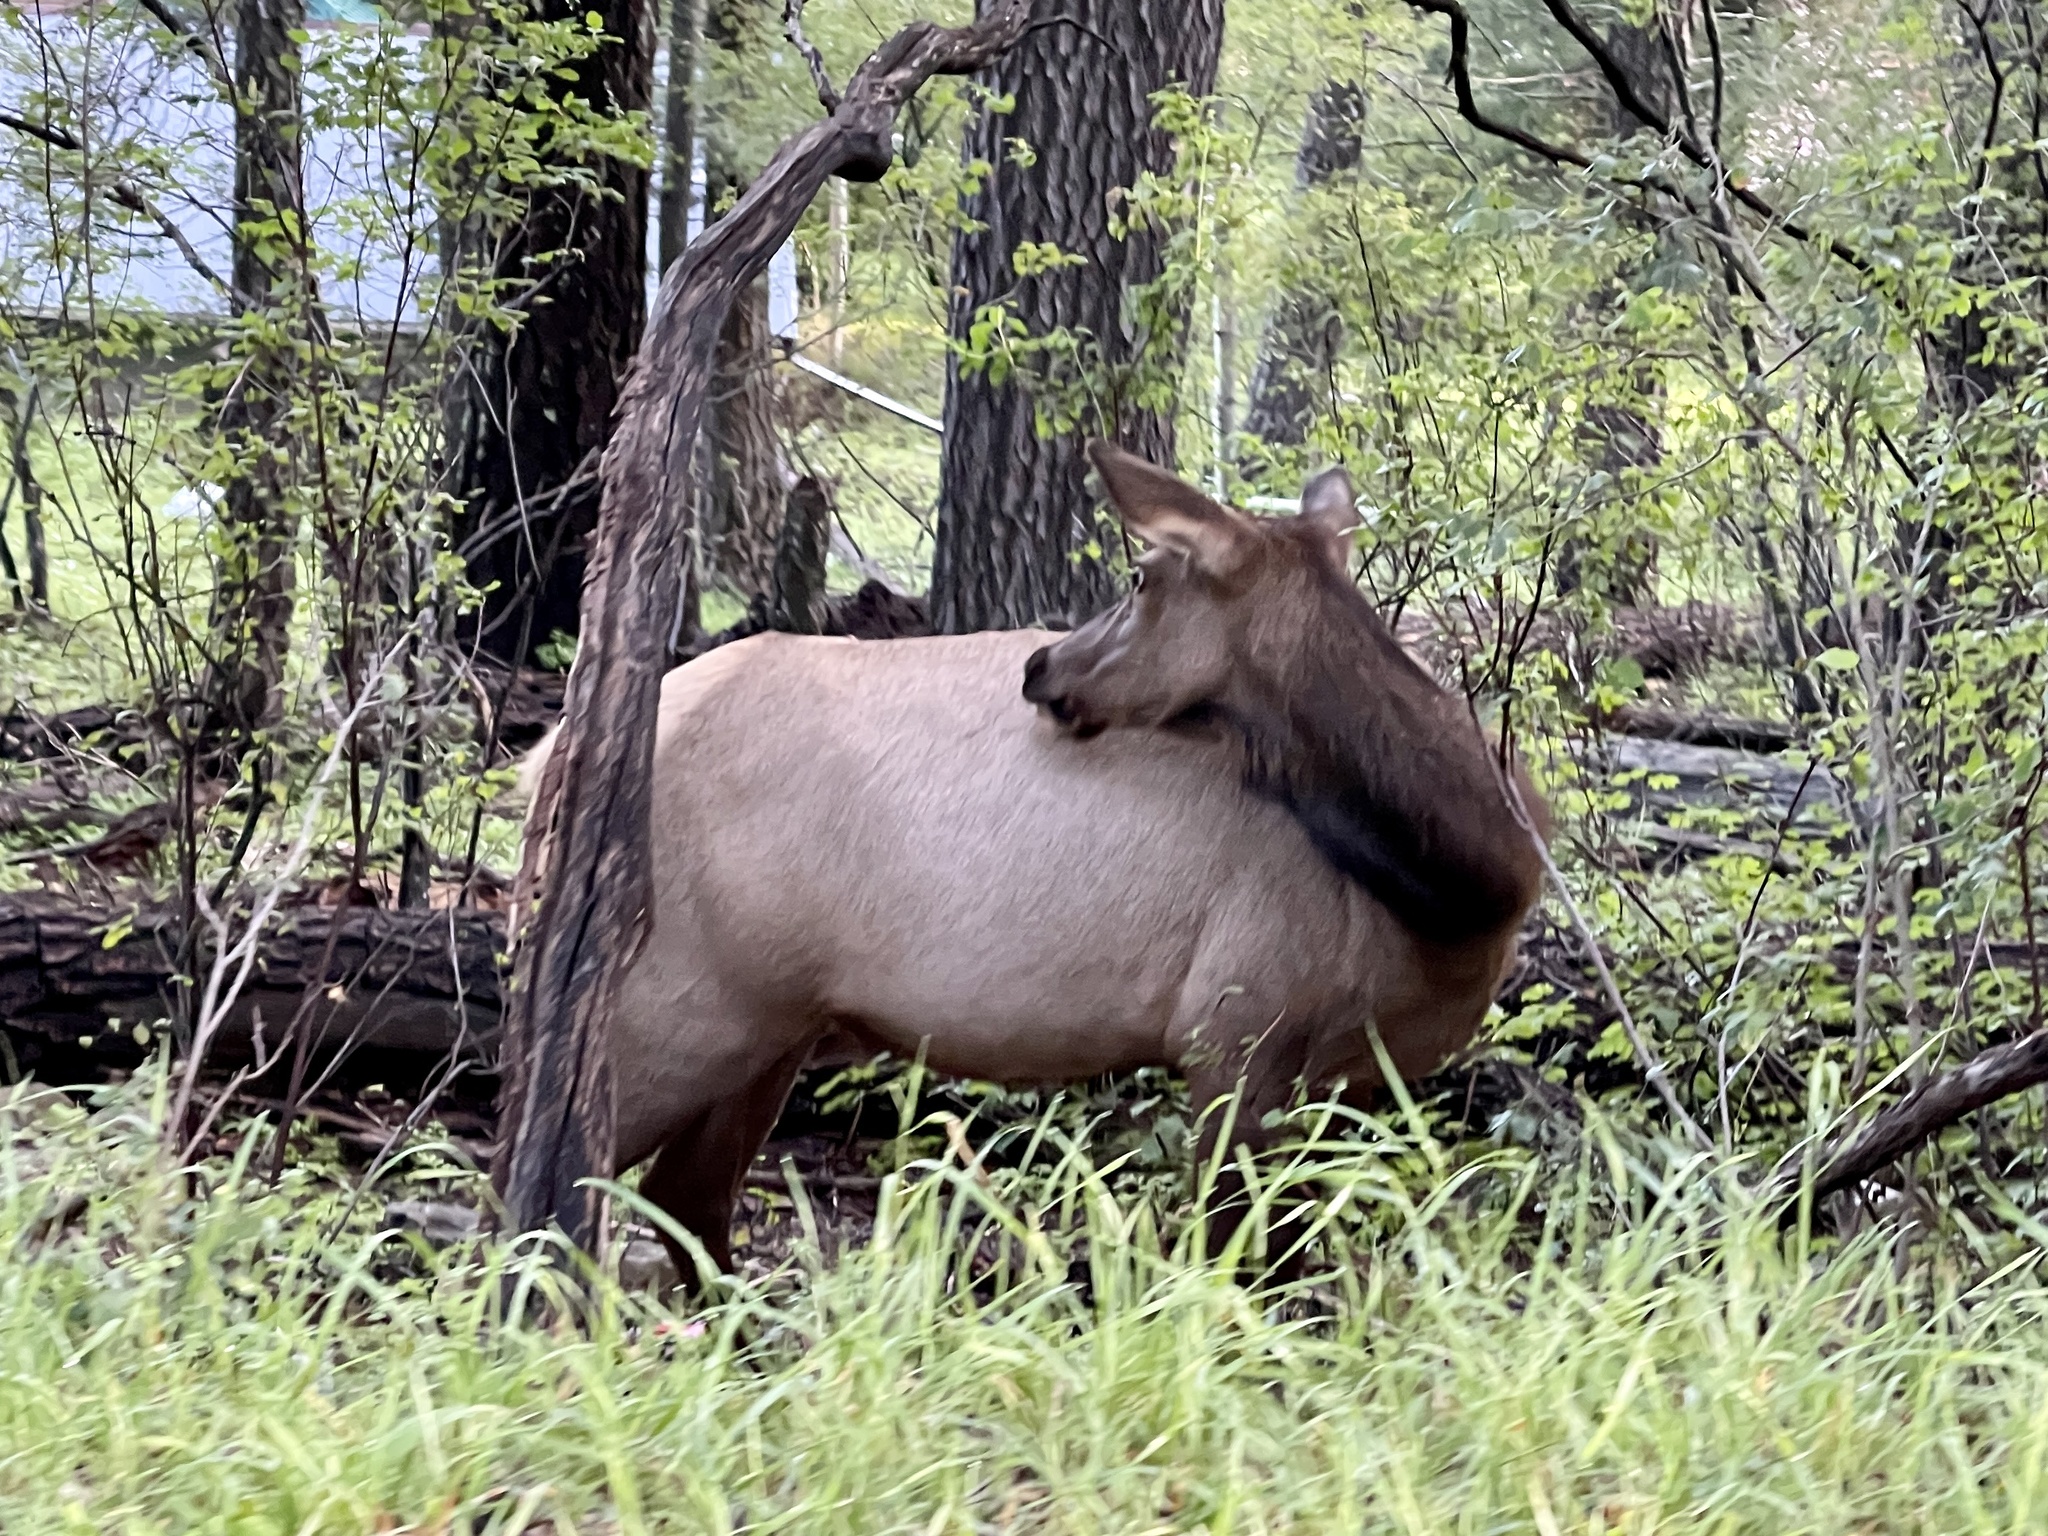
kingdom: Animalia
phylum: Chordata
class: Mammalia
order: Artiodactyla
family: Cervidae
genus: Cervus
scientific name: Cervus elaphus
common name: Red deer
